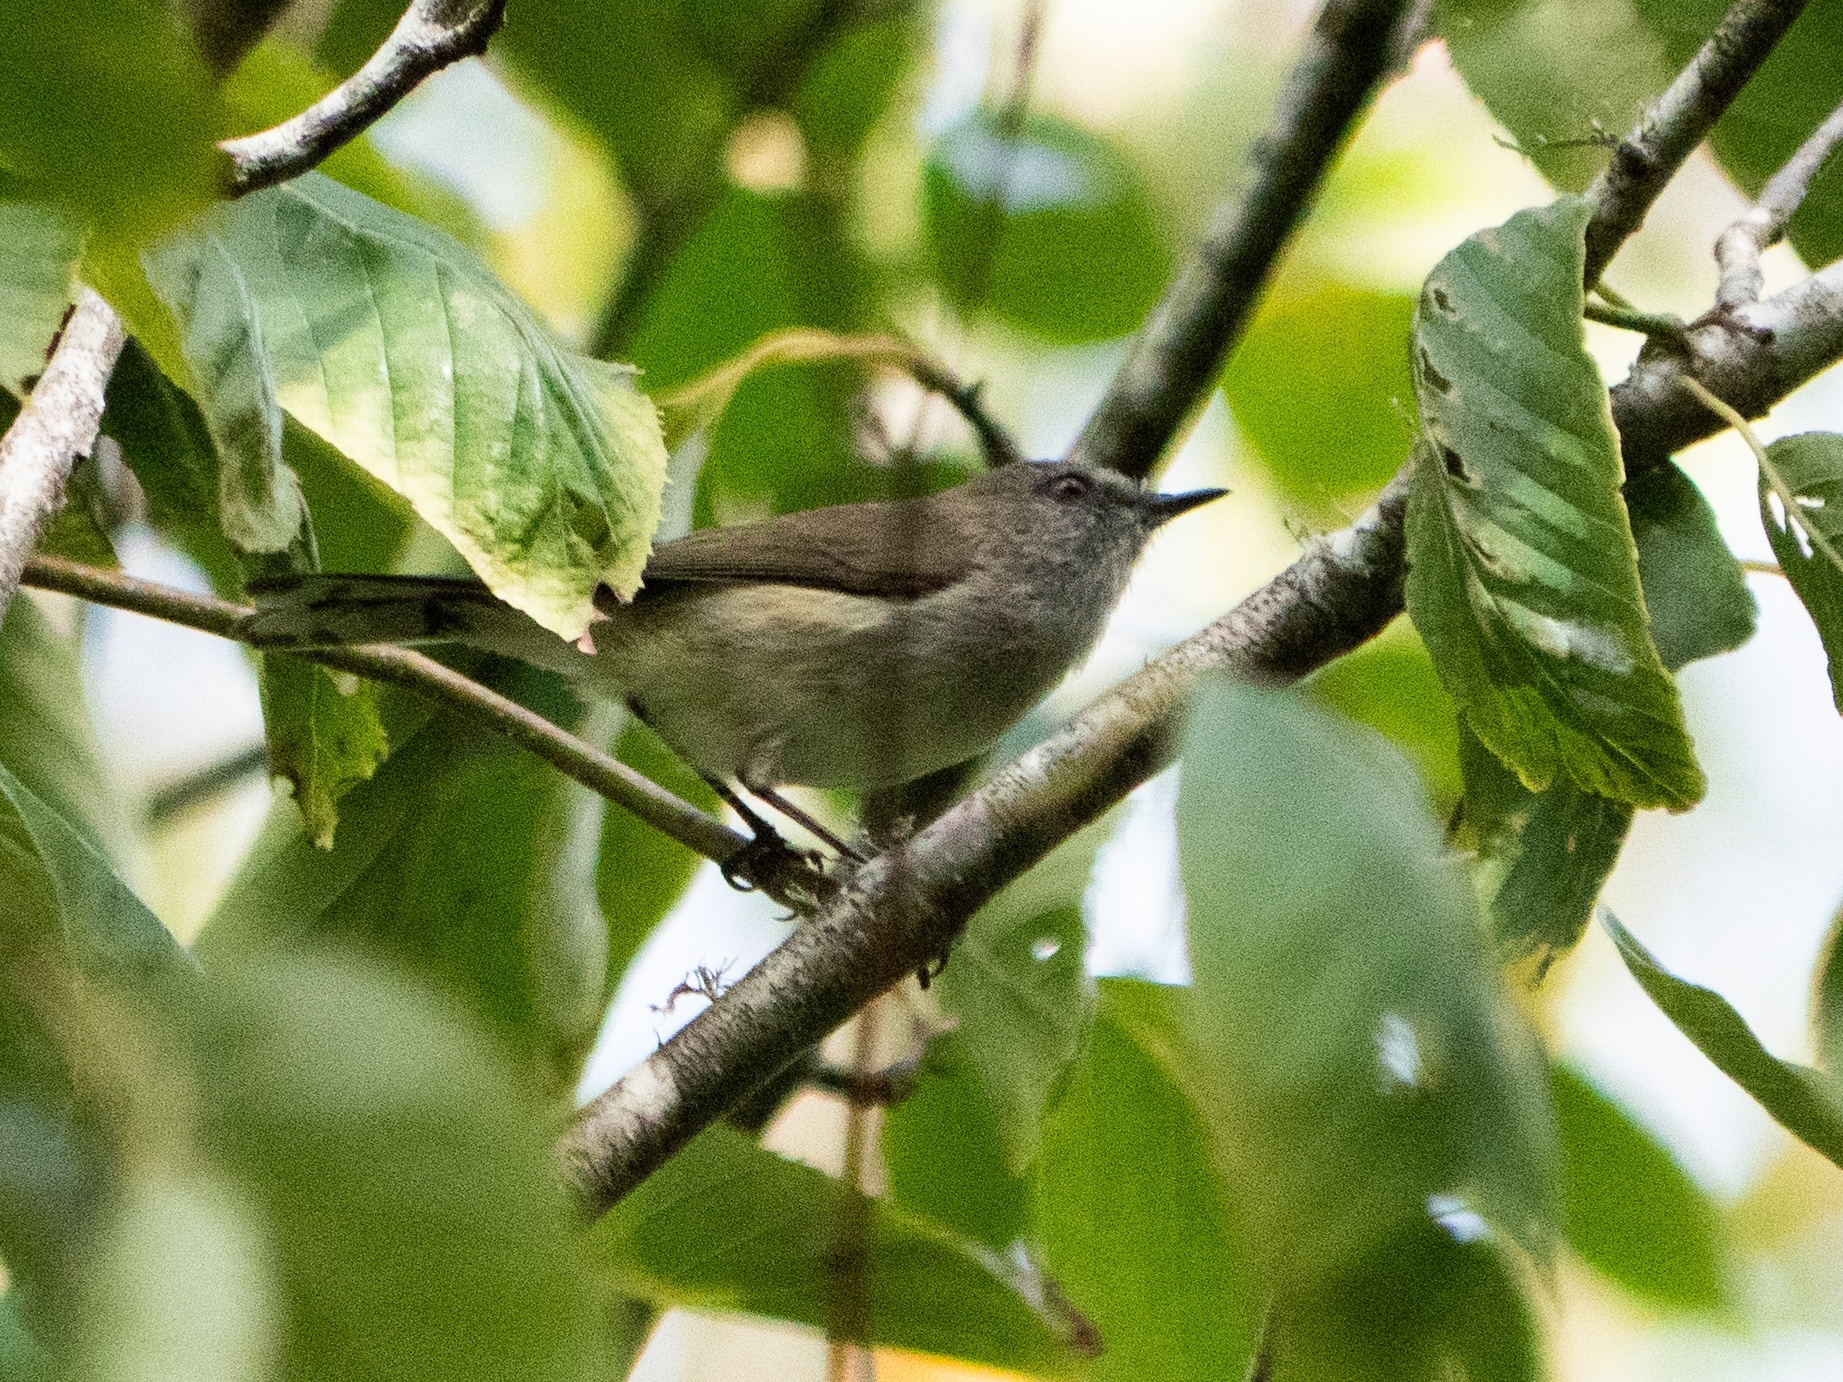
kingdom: Animalia
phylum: Chordata
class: Aves
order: Passeriformes
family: Acanthizidae
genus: Gerygone
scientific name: Gerygone igata
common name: Grey gerygone
